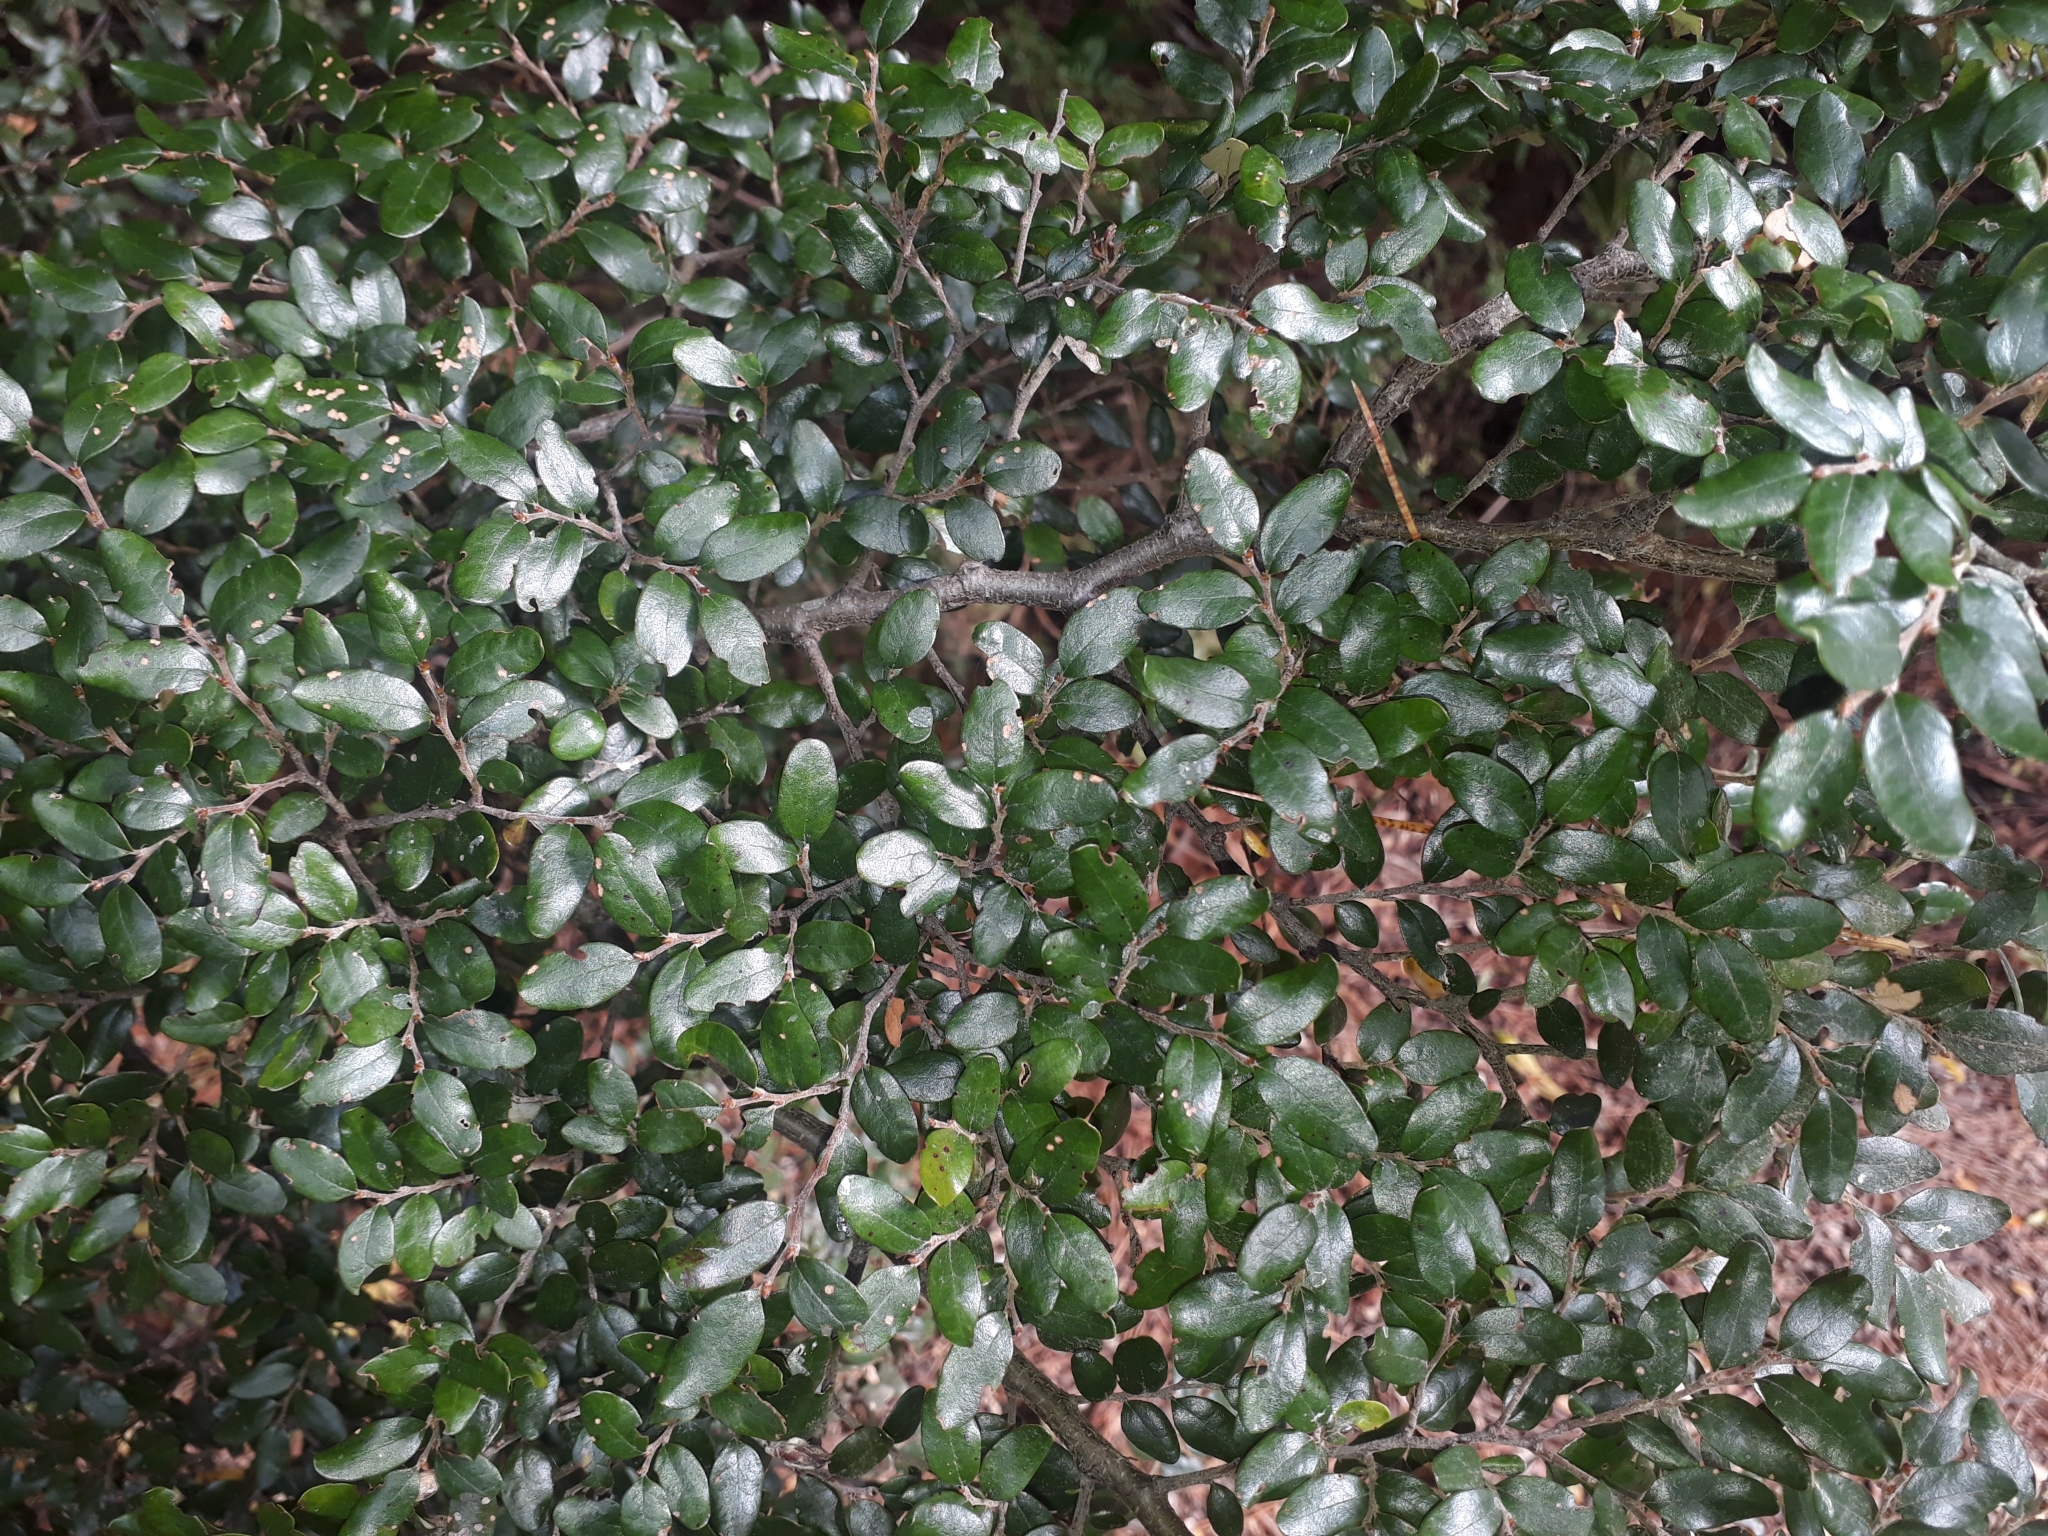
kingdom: Plantae
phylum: Tracheophyta
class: Magnoliopsida
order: Fagales
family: Nothofagaceae
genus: Nothofagus
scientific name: Nothofagus solandri
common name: Black beech
